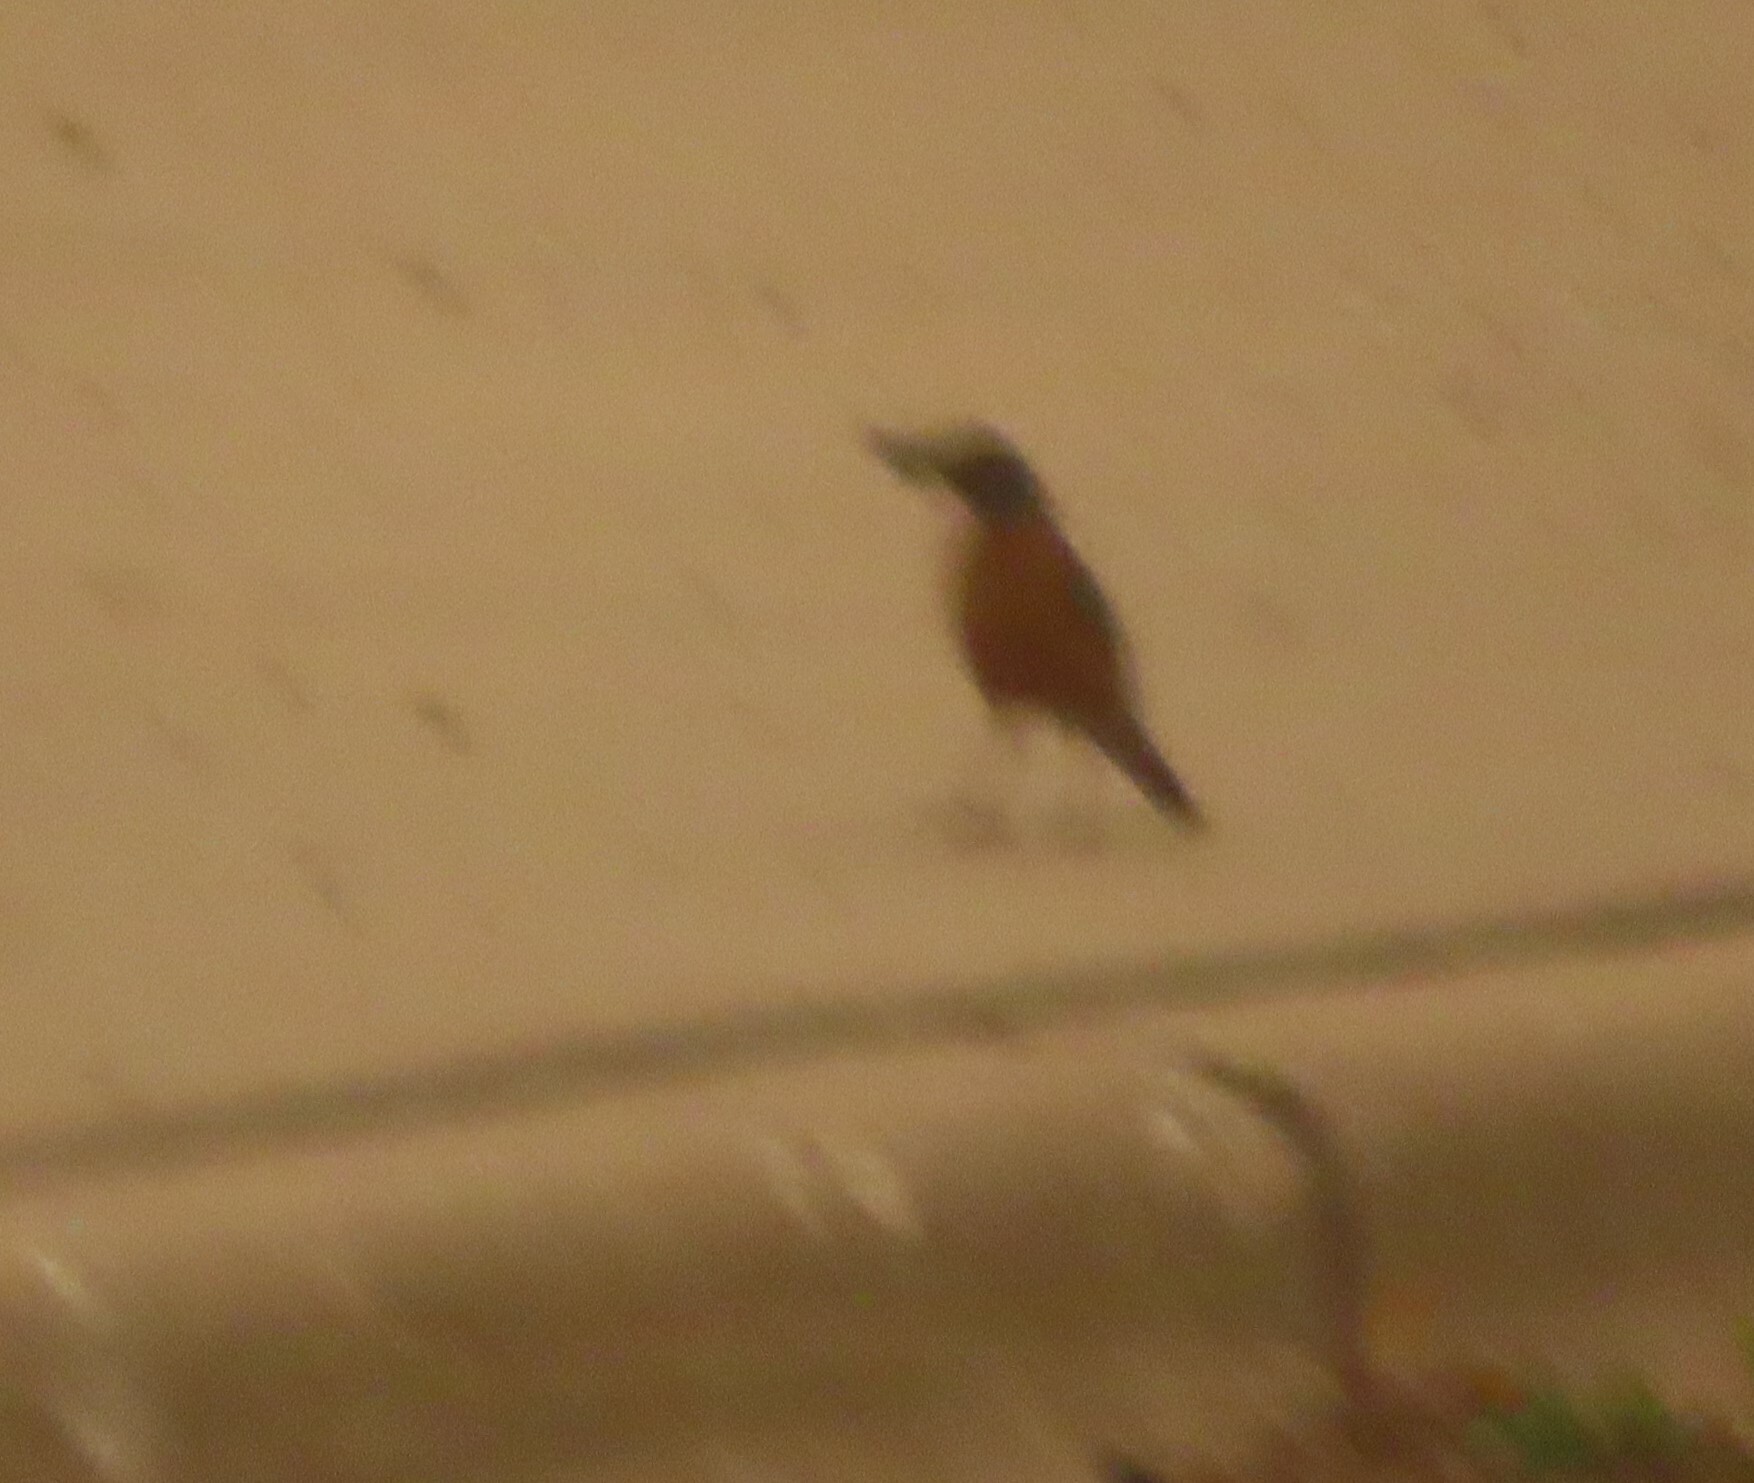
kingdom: Animalia
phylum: Chordata
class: Aves
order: Passeriformes
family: Turdidae
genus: Turdus
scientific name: Turdus migratorius
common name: American robin
